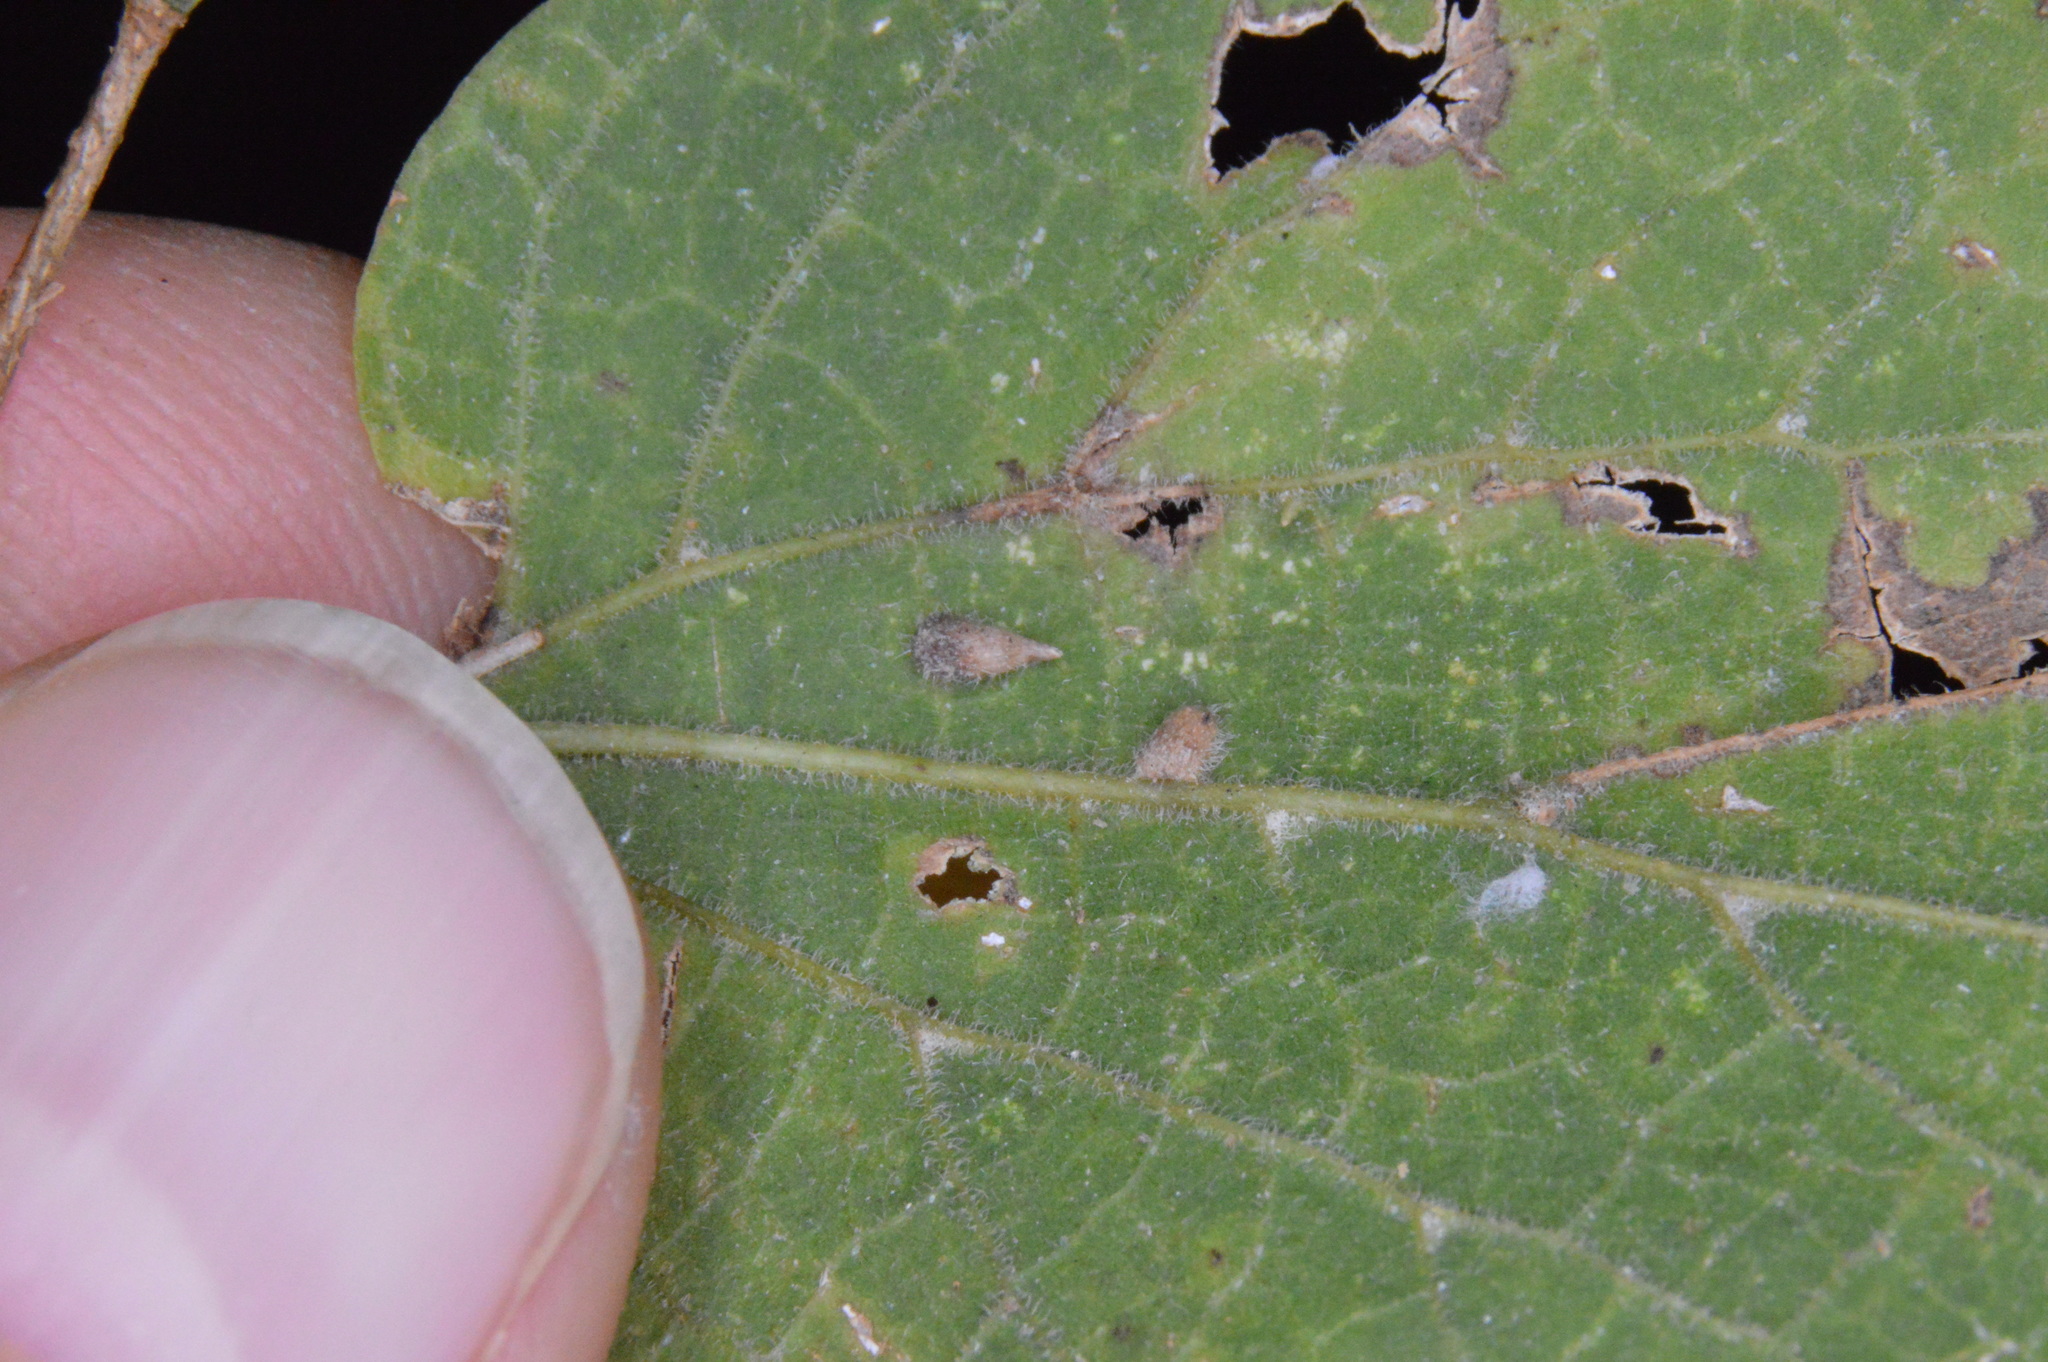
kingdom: Animalia
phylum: Arthropoda
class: Insecta
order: Diptera
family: Cecidomyiidae
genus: Celticecis
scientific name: Celticecis supina
